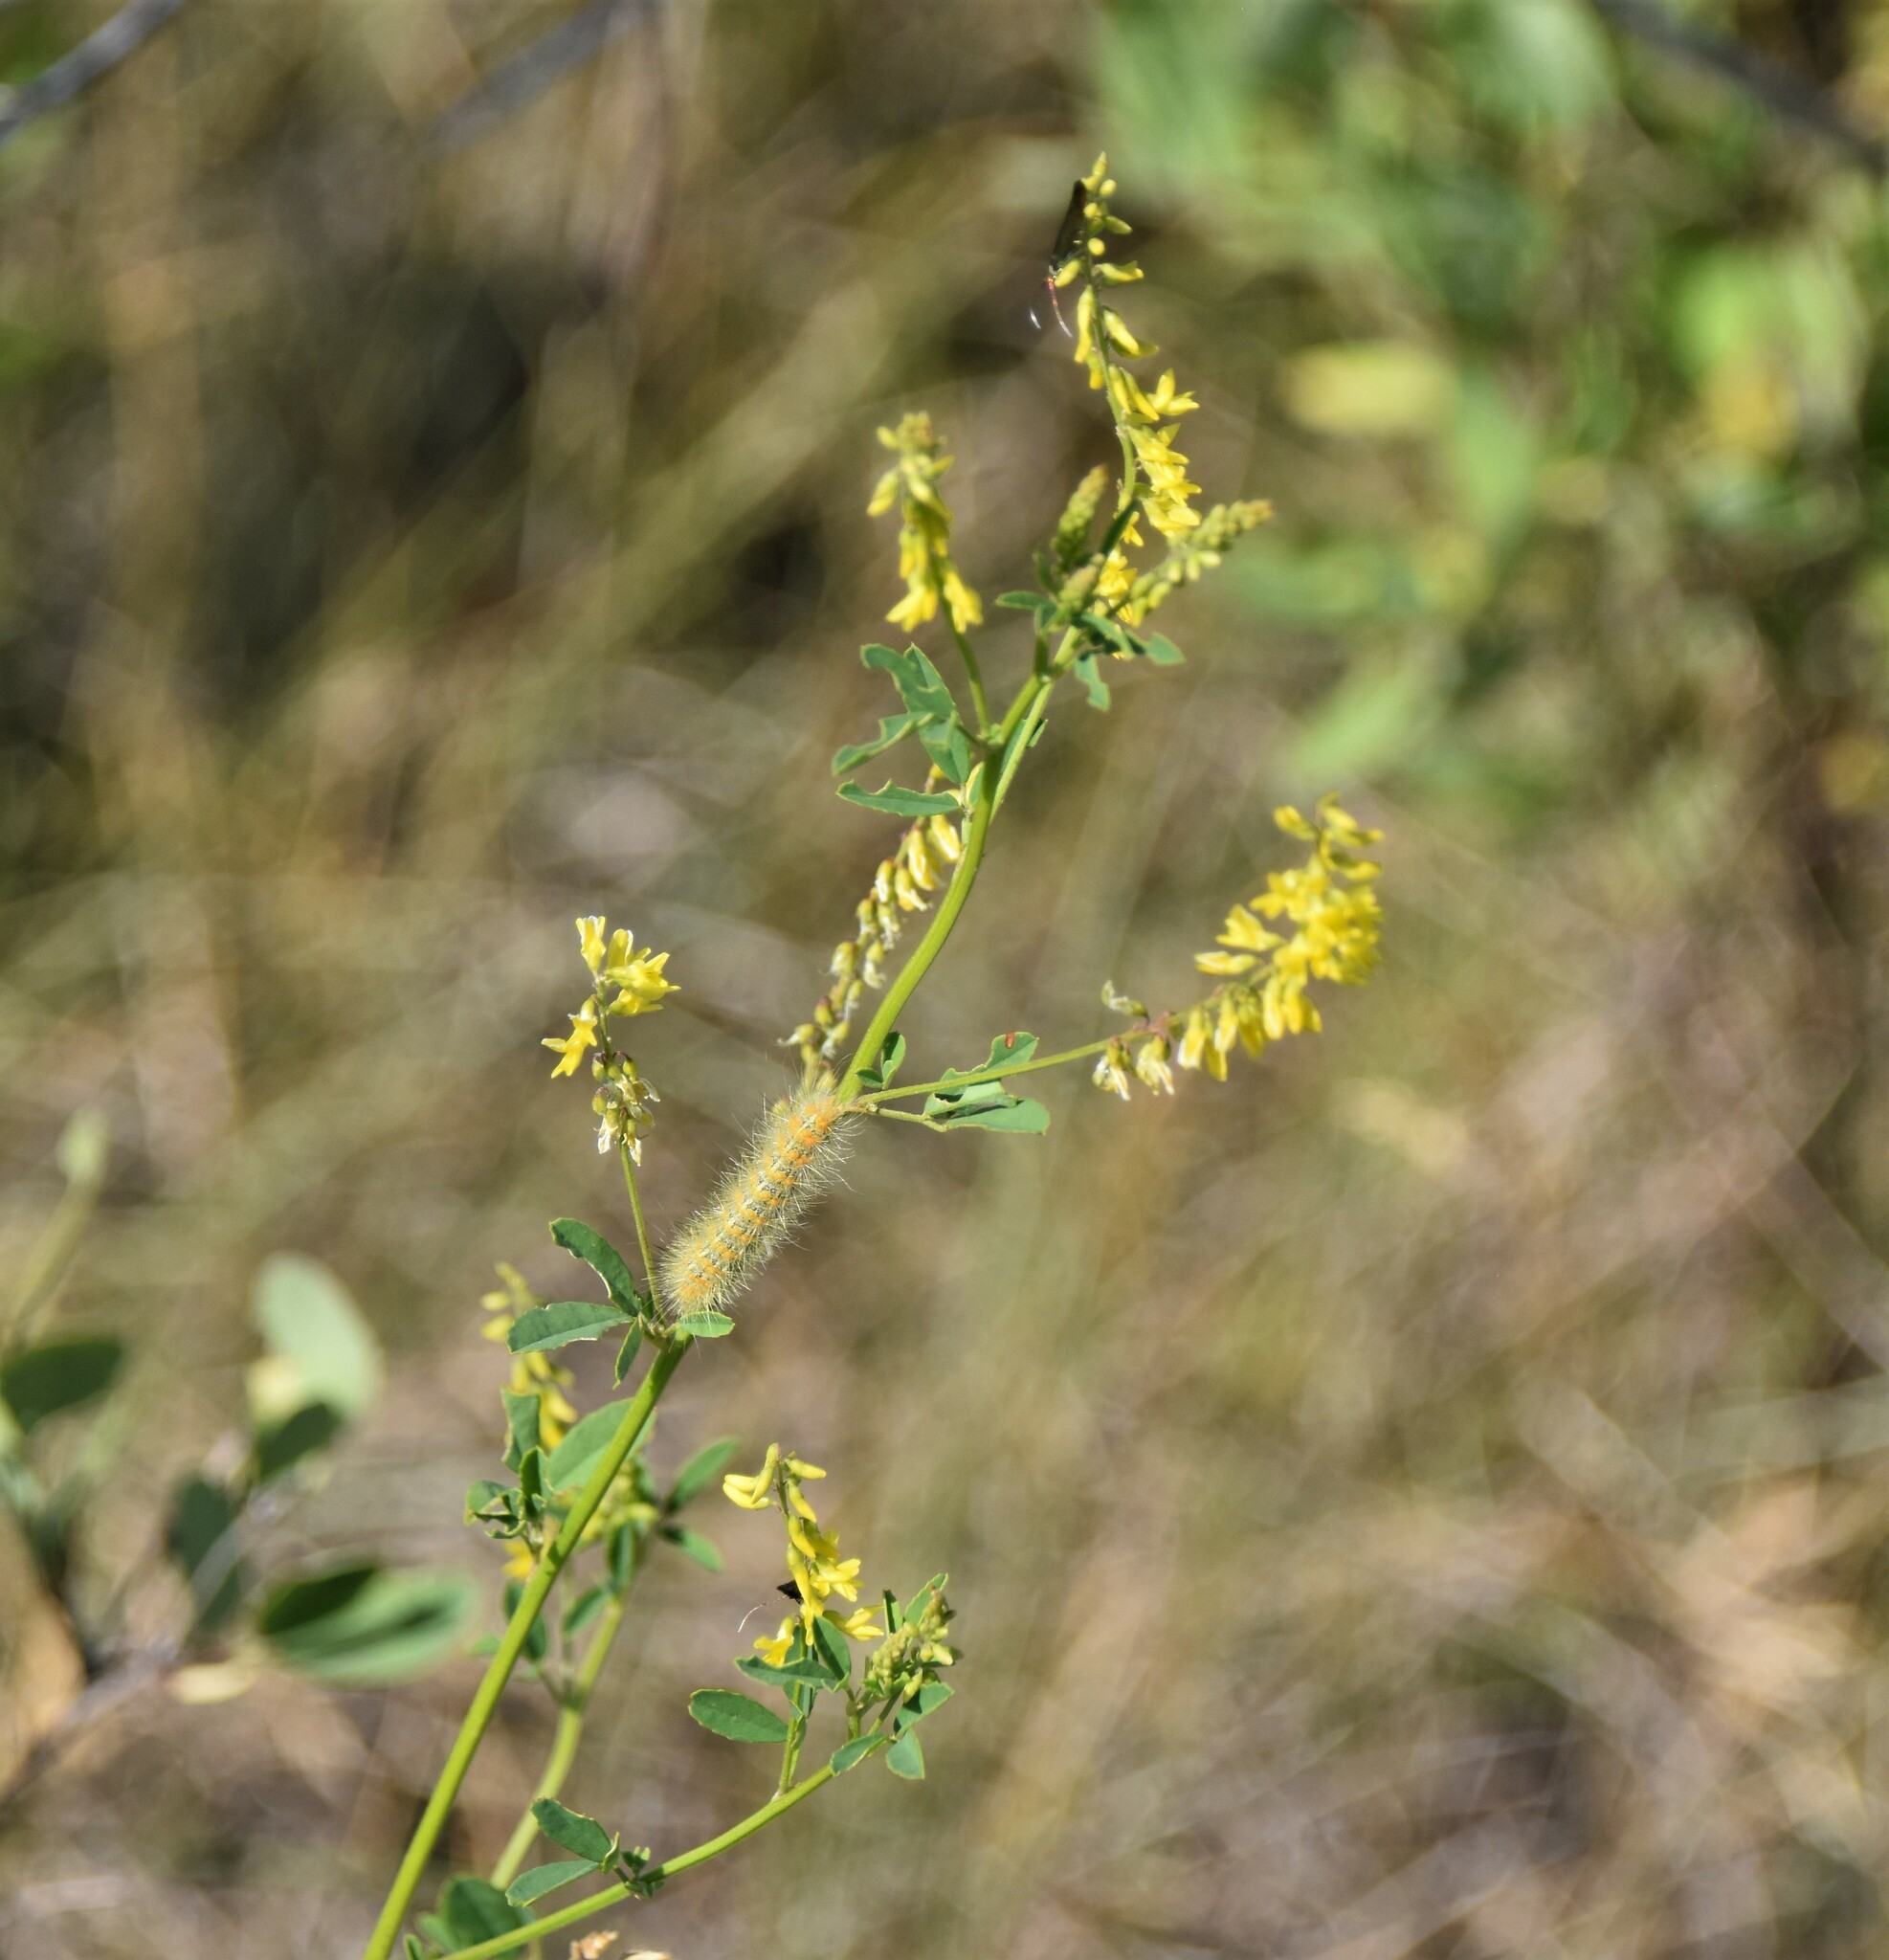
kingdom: Plantae
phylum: Tracheophyta
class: Magnoliopsida
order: Fabales
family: Fabaceae
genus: Melilotus
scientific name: Melilotus officinalis
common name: Sweetclover
